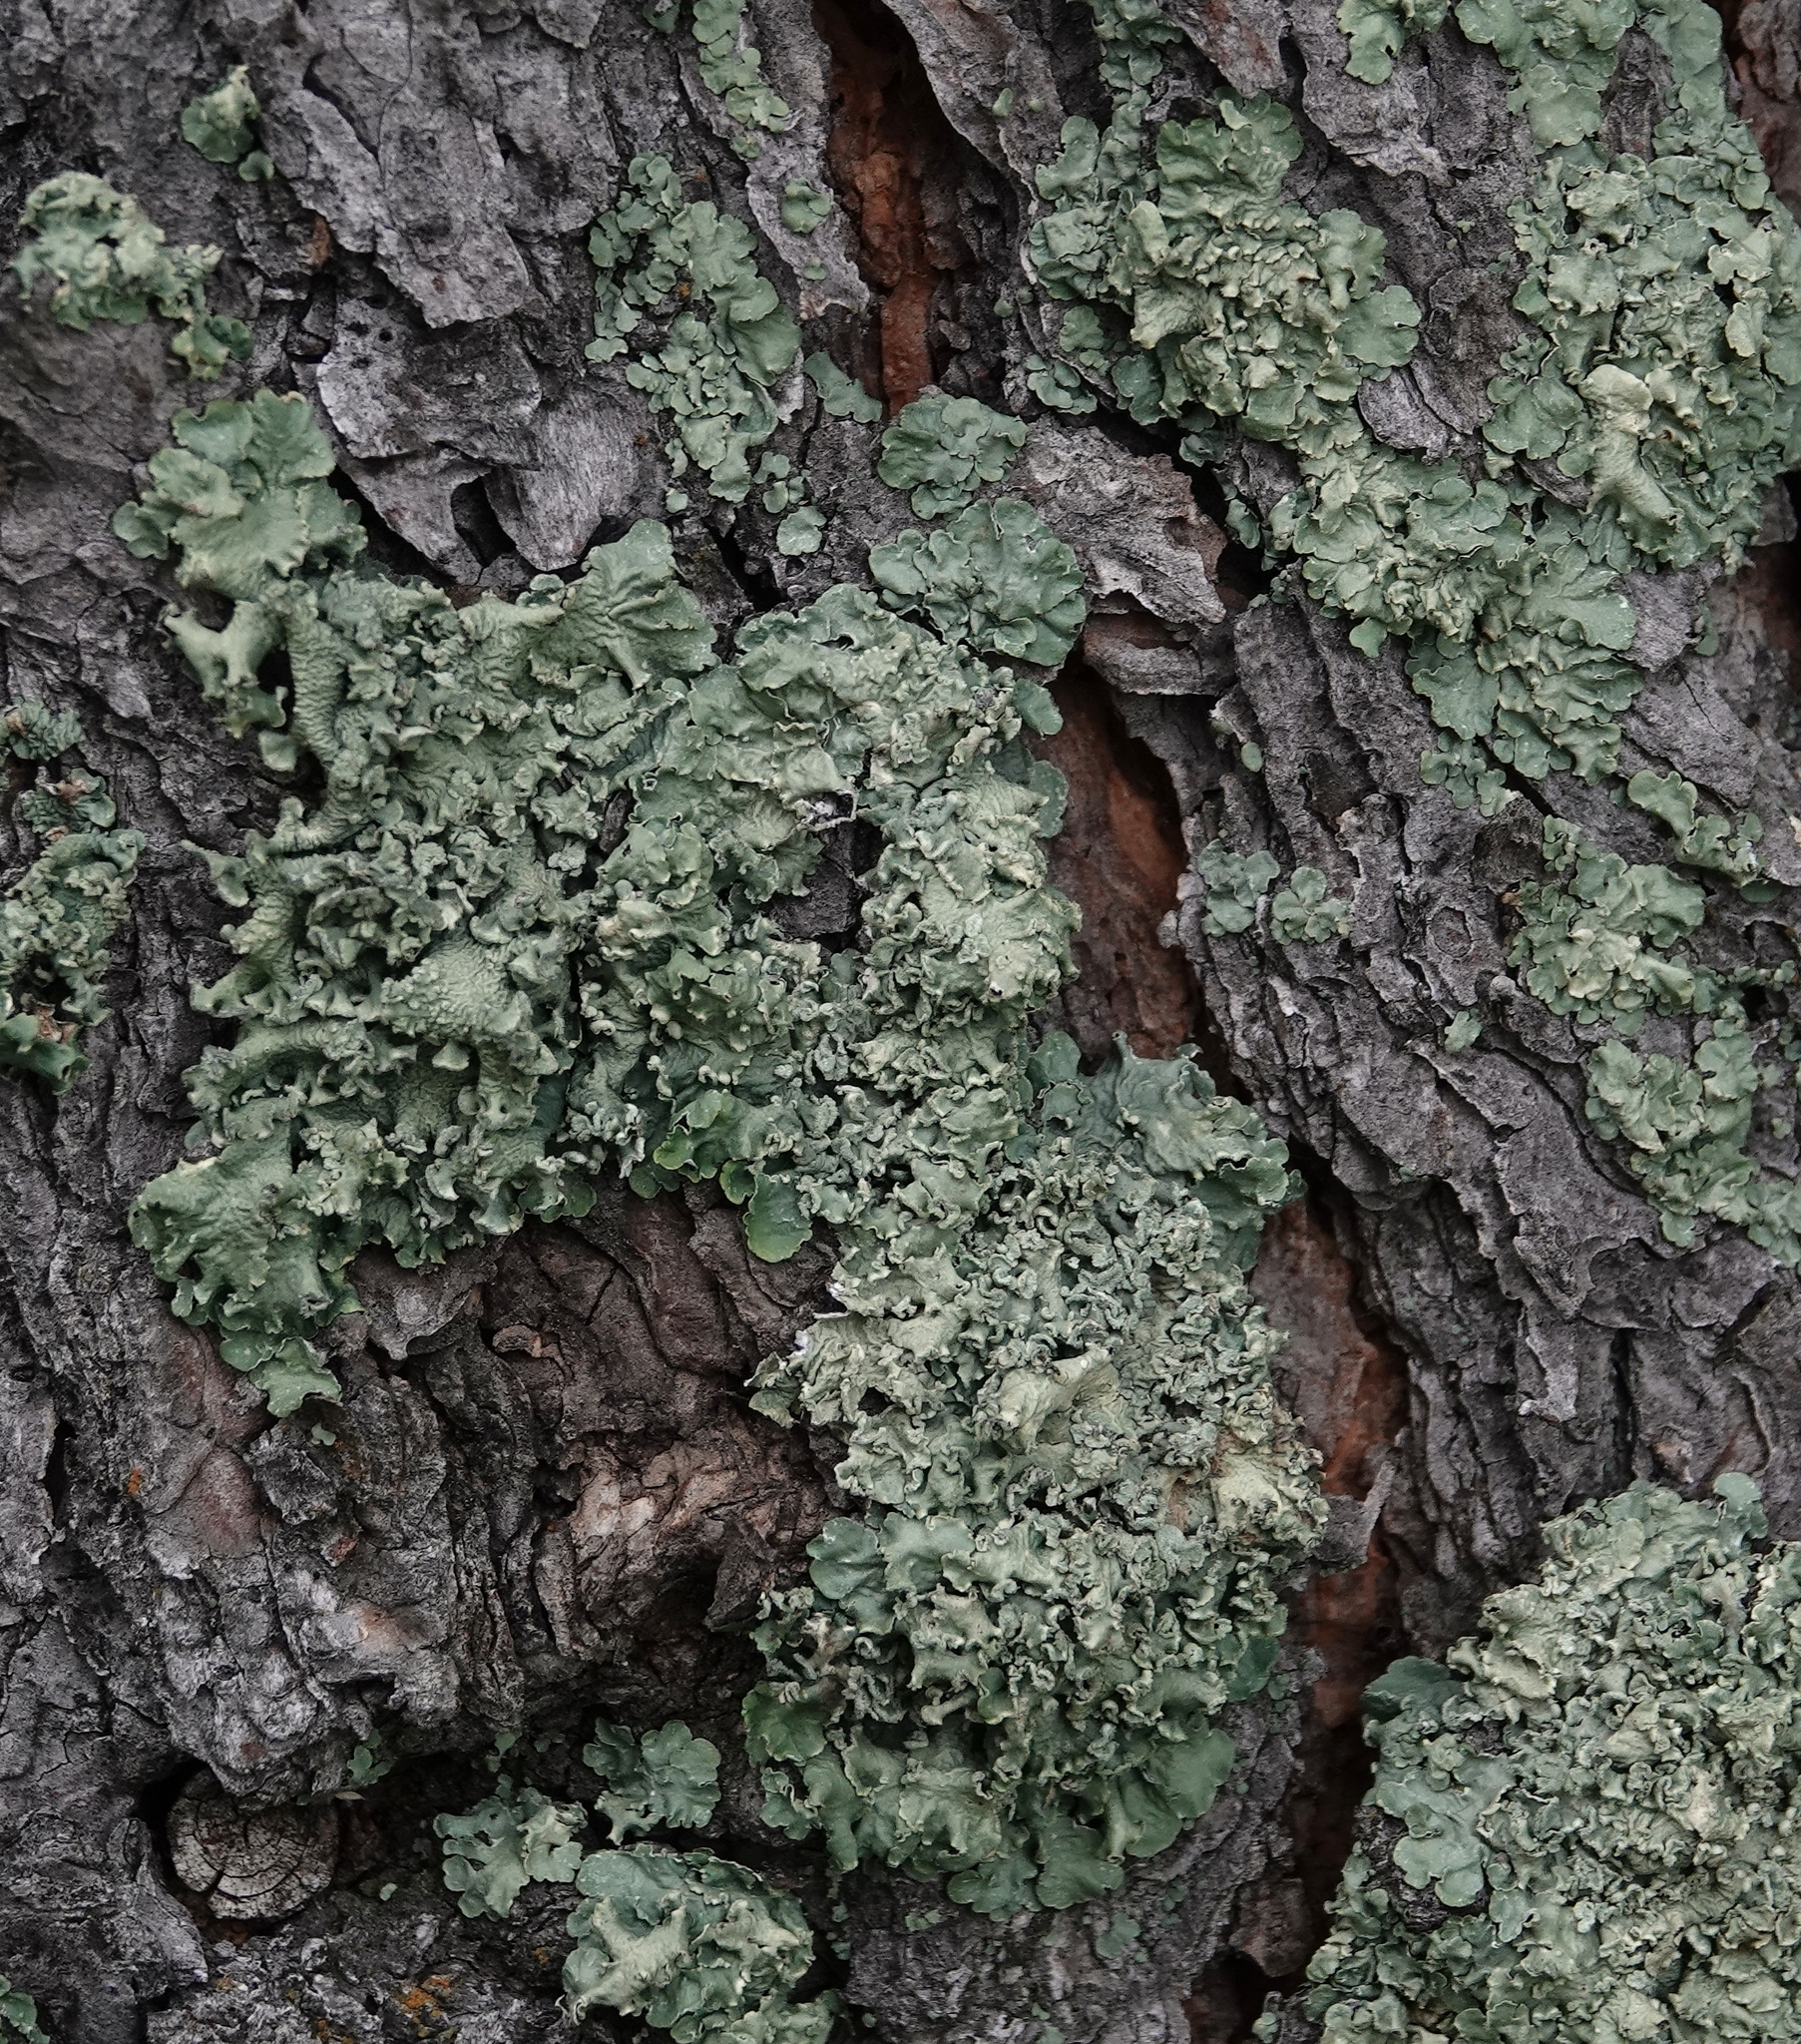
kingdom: Fungi
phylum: Ascomycota
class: Lecanoromycetes
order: Lecanorales
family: Parmeliaceae
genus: Flavopunctelia
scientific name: Flavopunctelia soredica
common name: Powder-edged speckled greenshield
